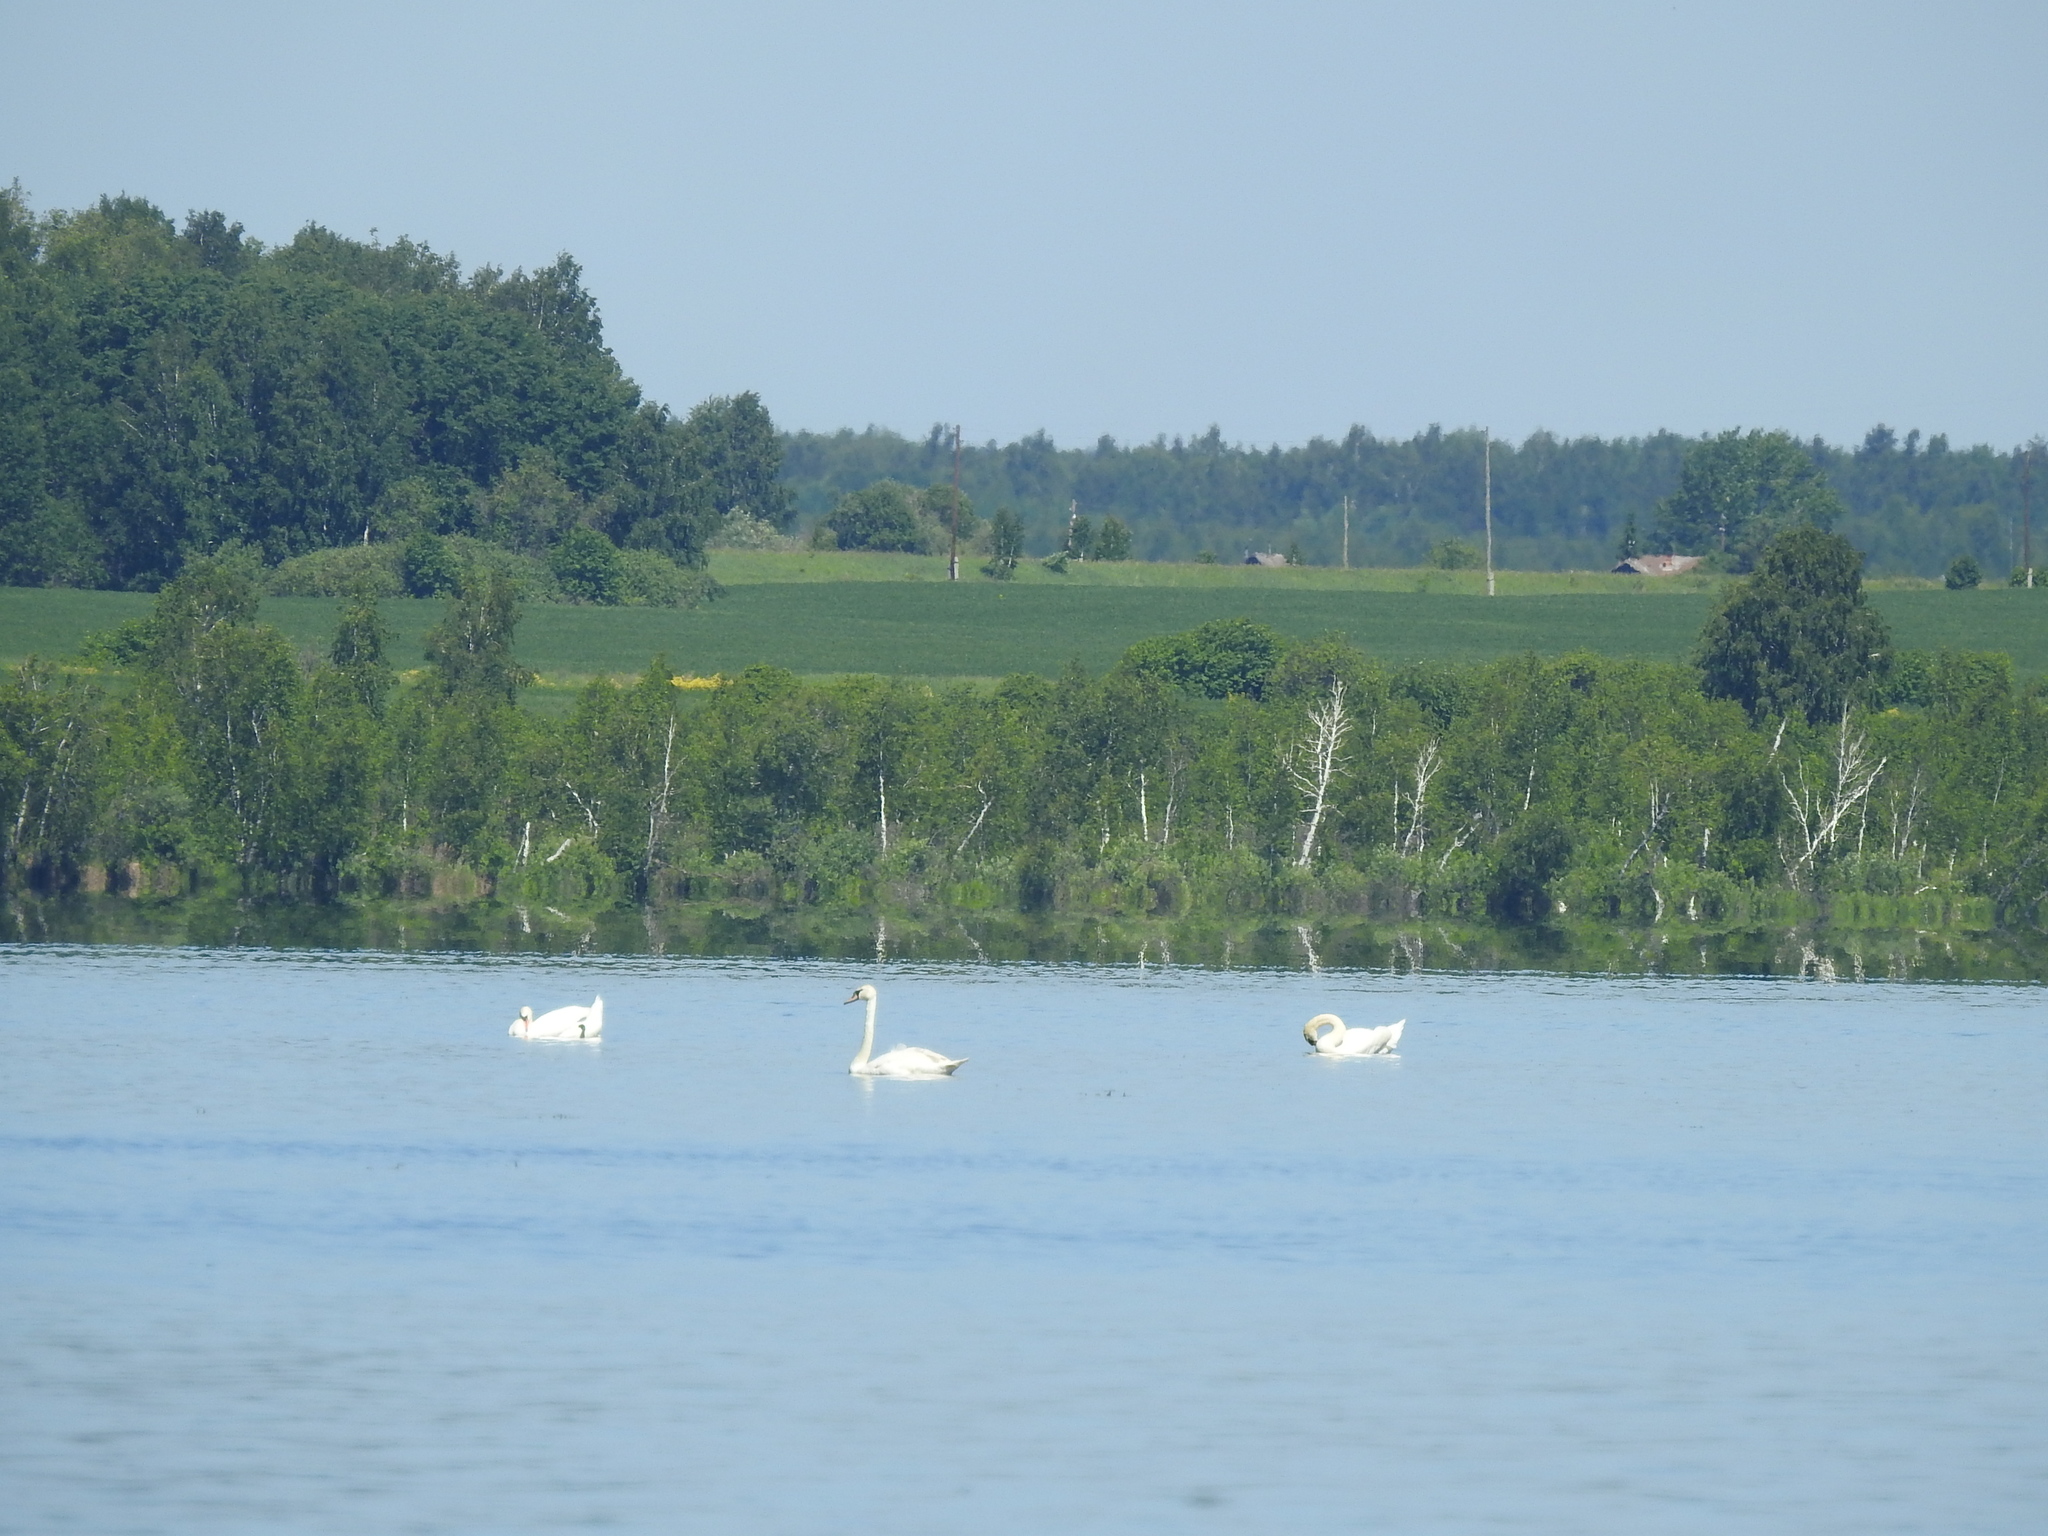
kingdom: Animalia
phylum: Chordata
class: Aves
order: Anseriformes
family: Anatidae
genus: Cygnus
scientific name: Cygnus olor
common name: Mute swan
